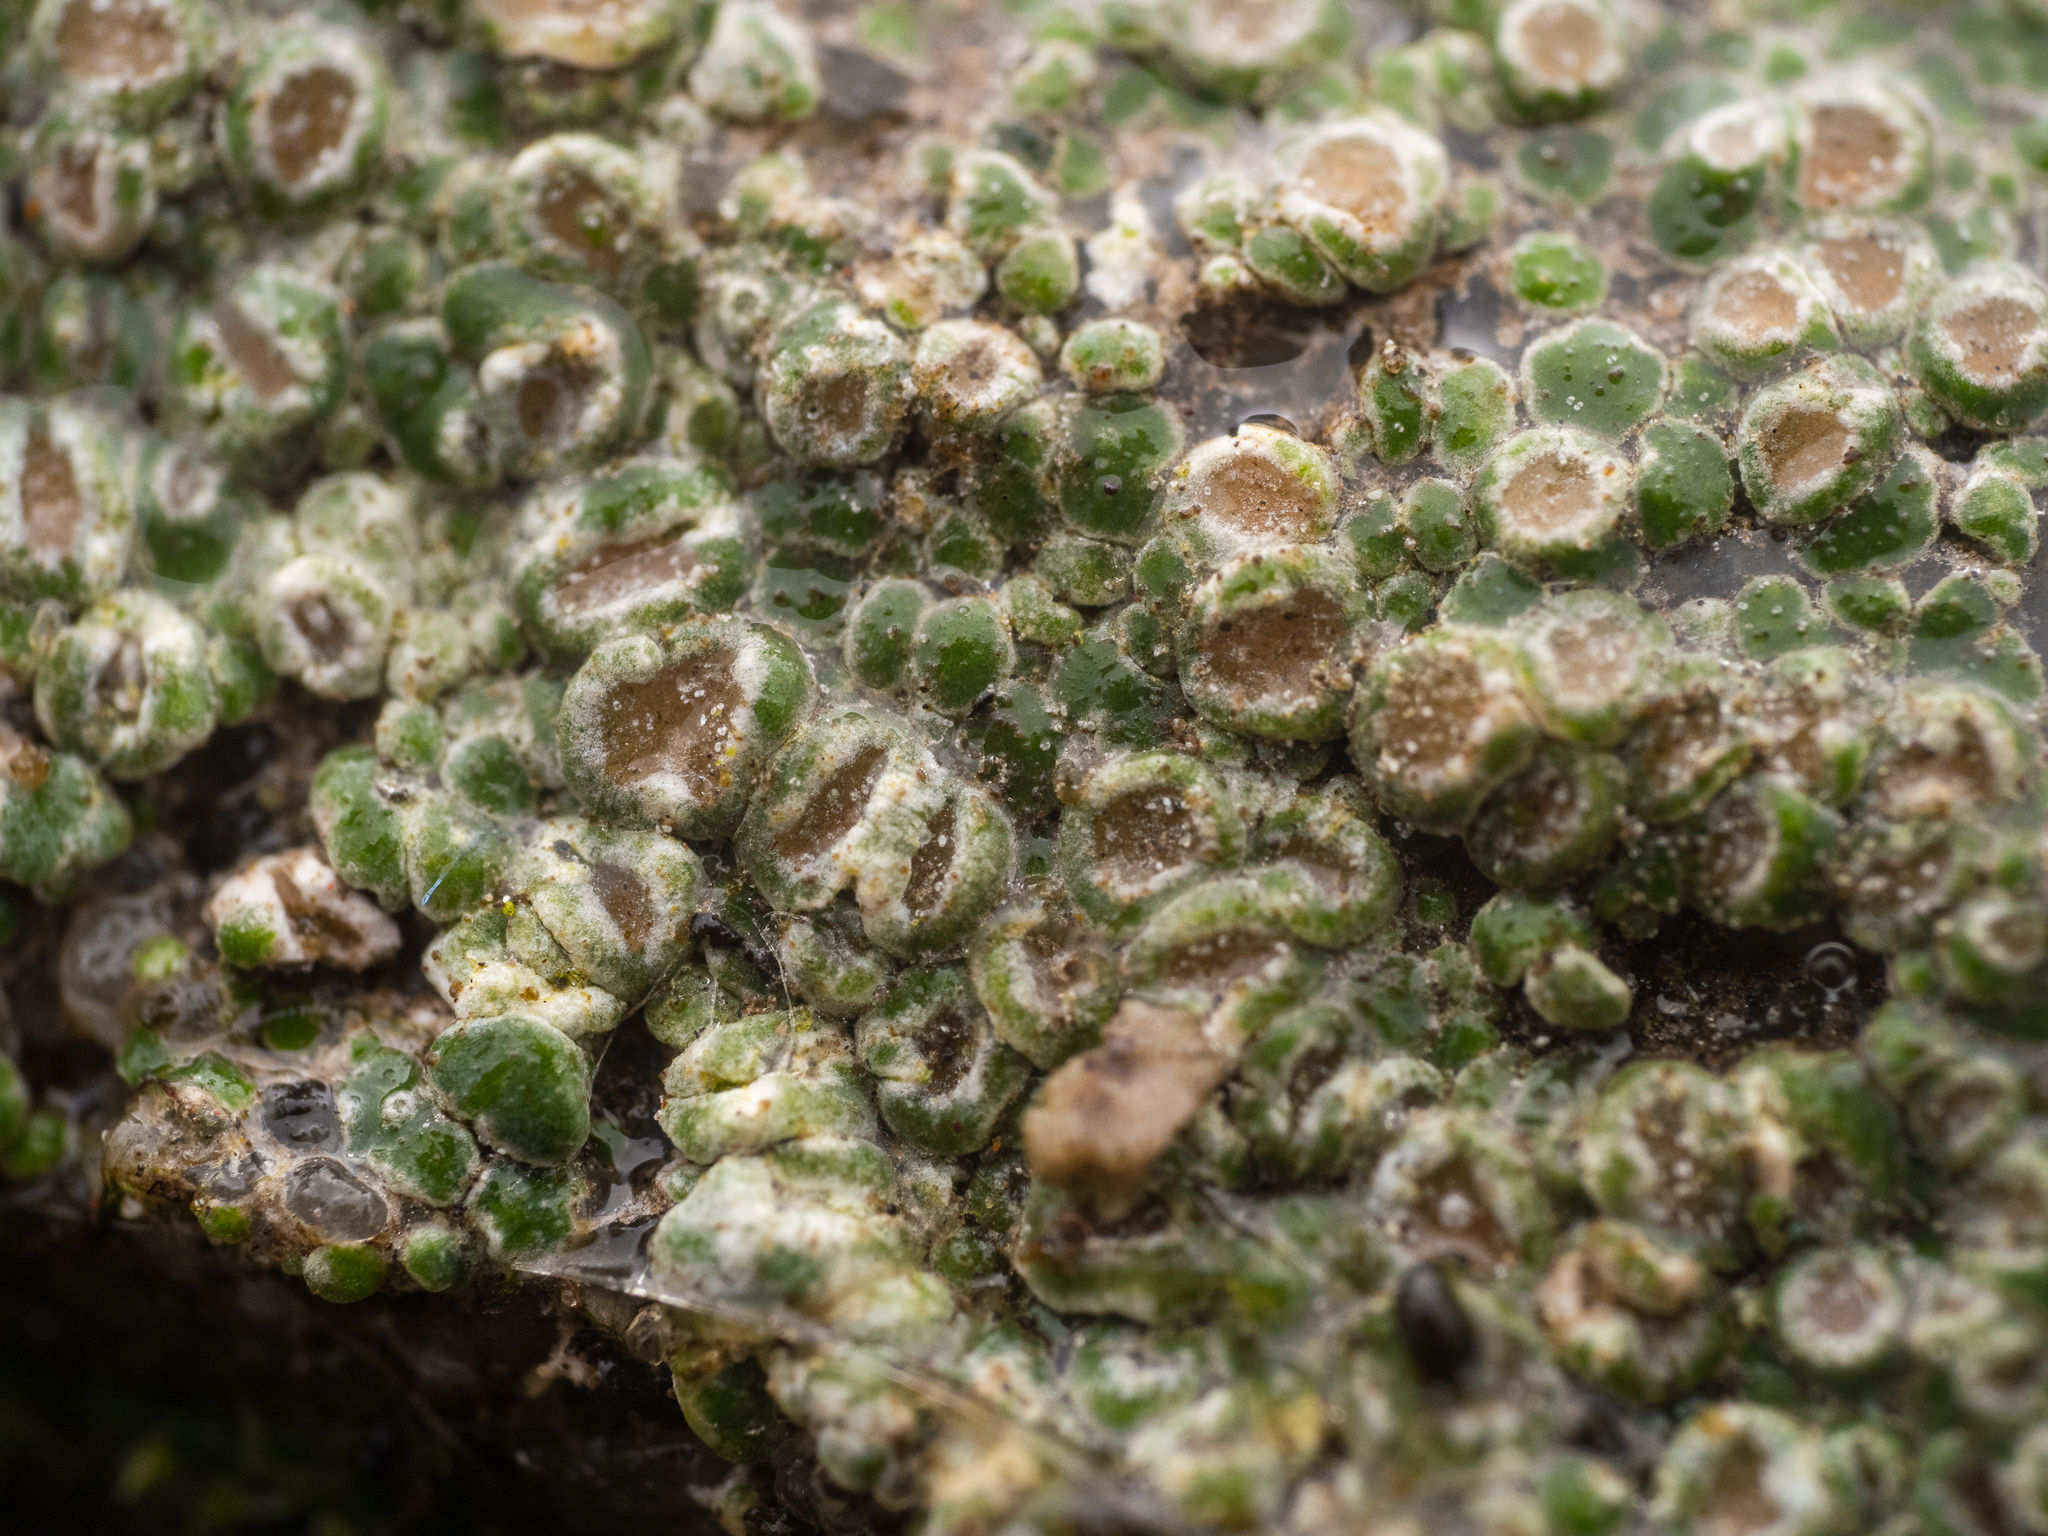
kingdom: Fungi
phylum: Ascomycota
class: Lecanoromycetes
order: Pertusariales
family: Megasporaceae
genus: Circinaria
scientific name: Circinaria contorta
